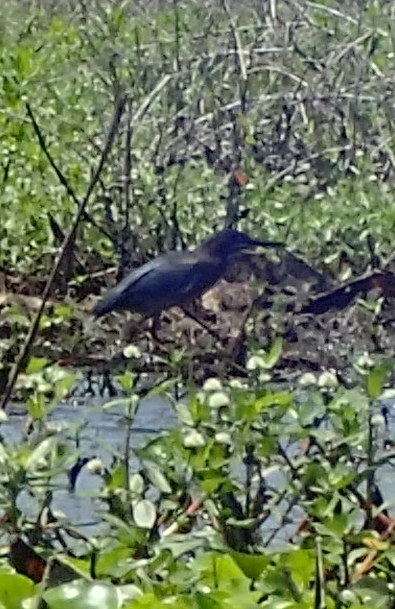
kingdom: Animalia
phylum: Chordata
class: Aves
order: Pelecaniformes
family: Ardeidae
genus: Butorides
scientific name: Butorides virescens
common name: Green heron
